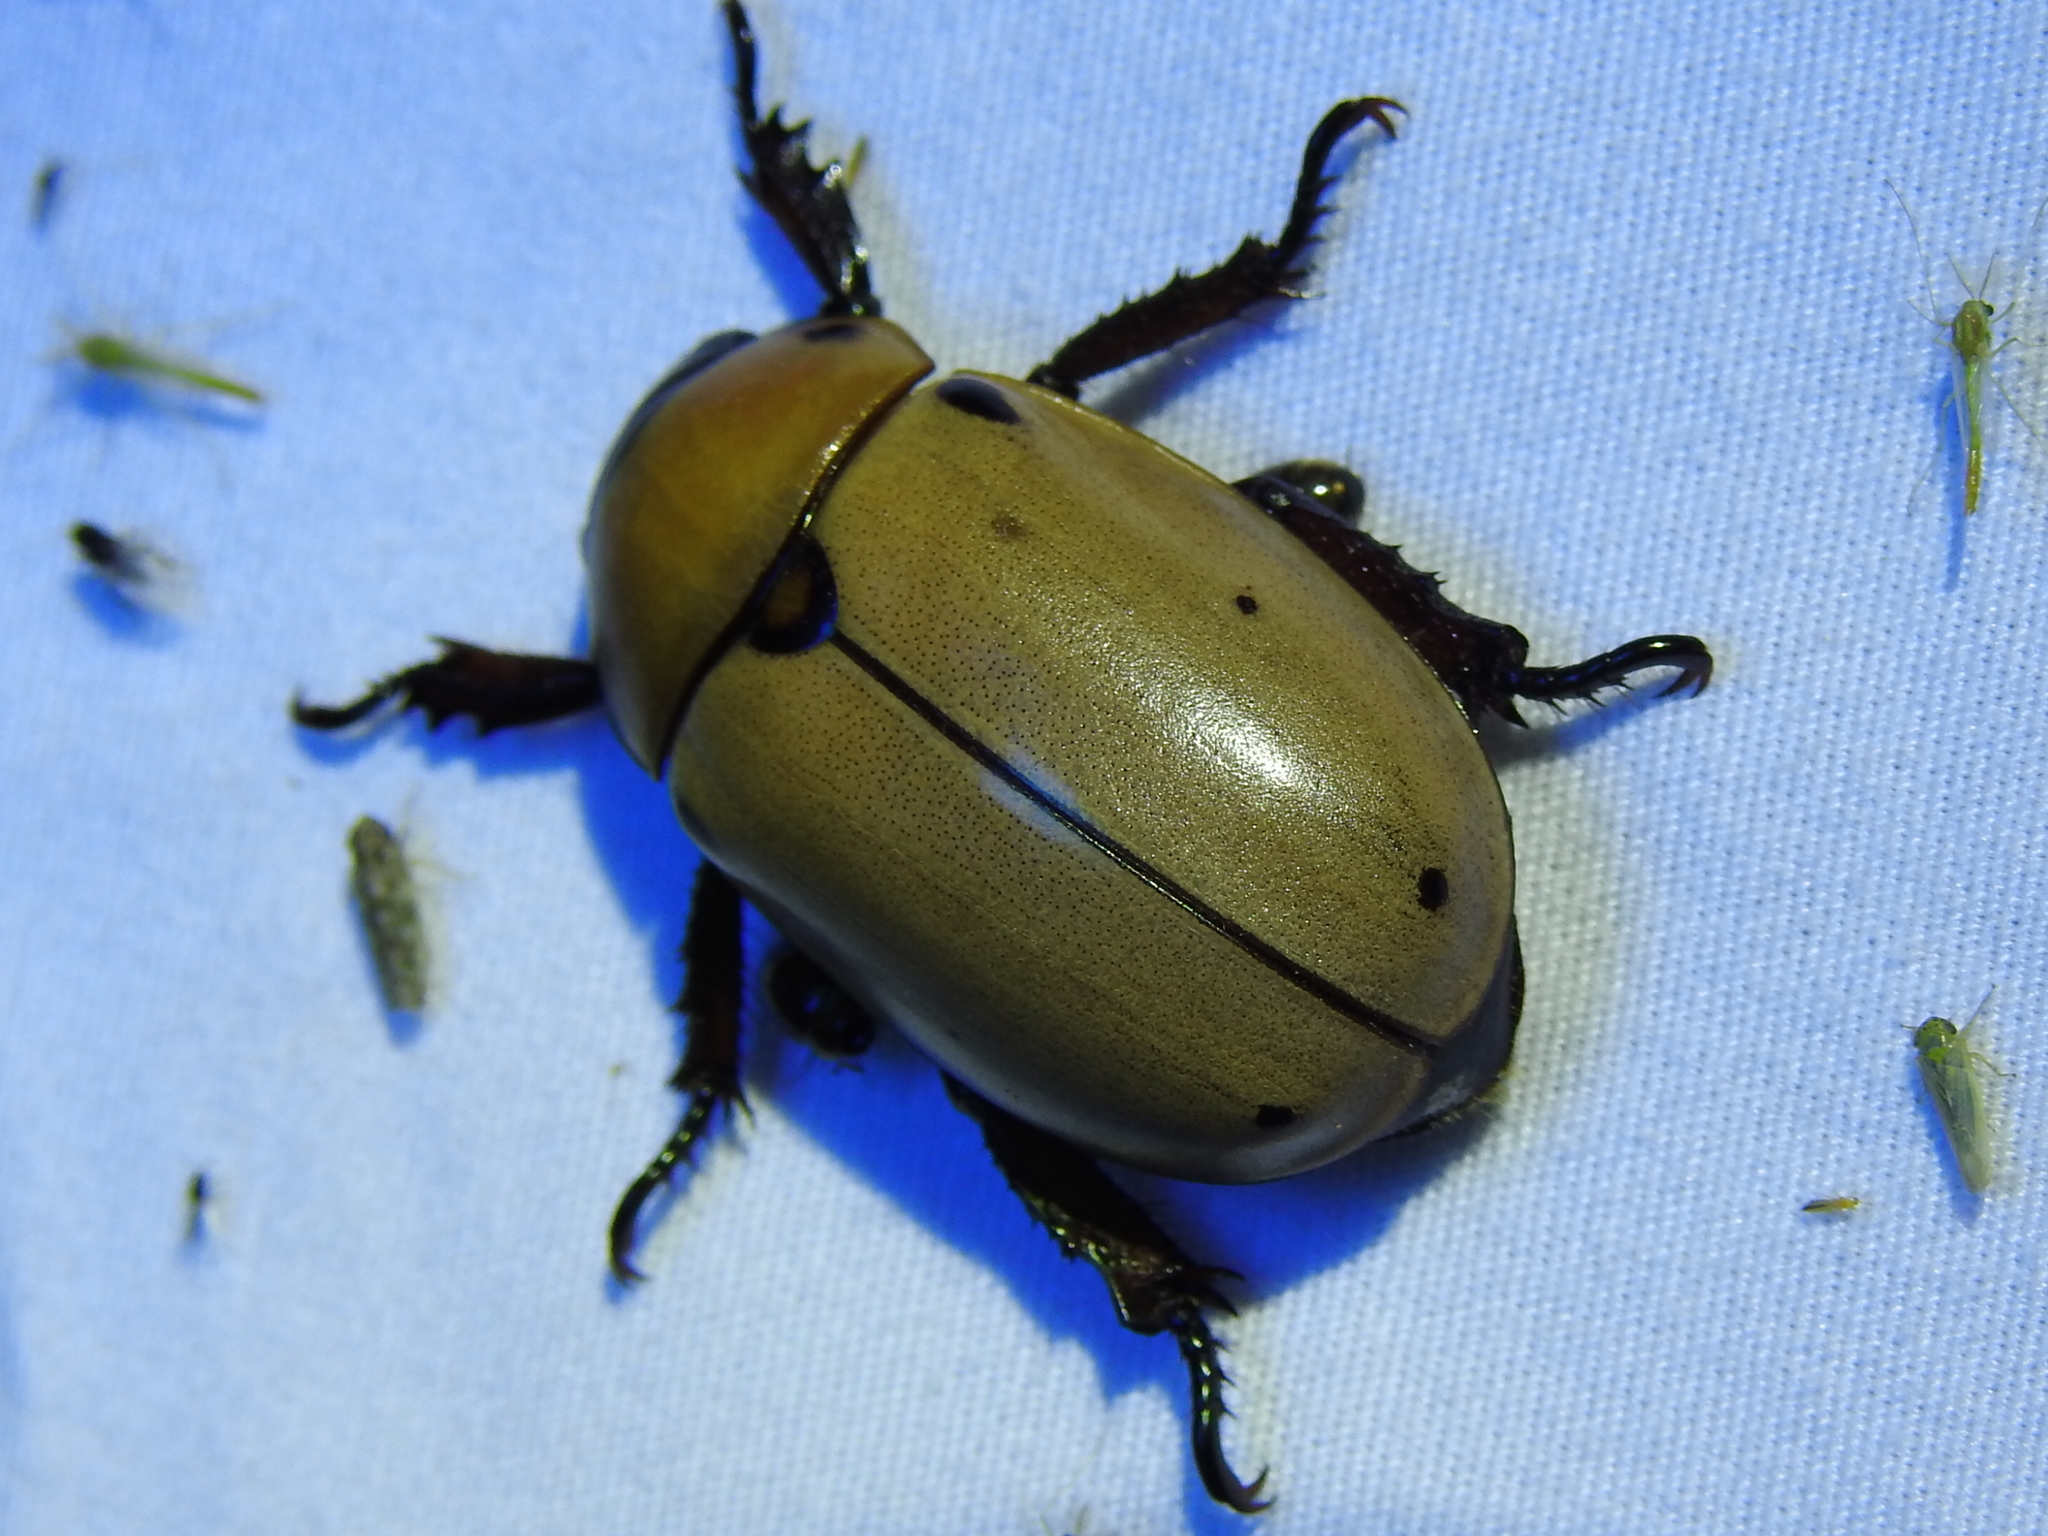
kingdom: Animalia
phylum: Arthropoda
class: Insecta
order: Coleoptera
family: Scarabaeidae
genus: Pelidnota
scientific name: Pelidnota punctata
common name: Grapevine beetle
